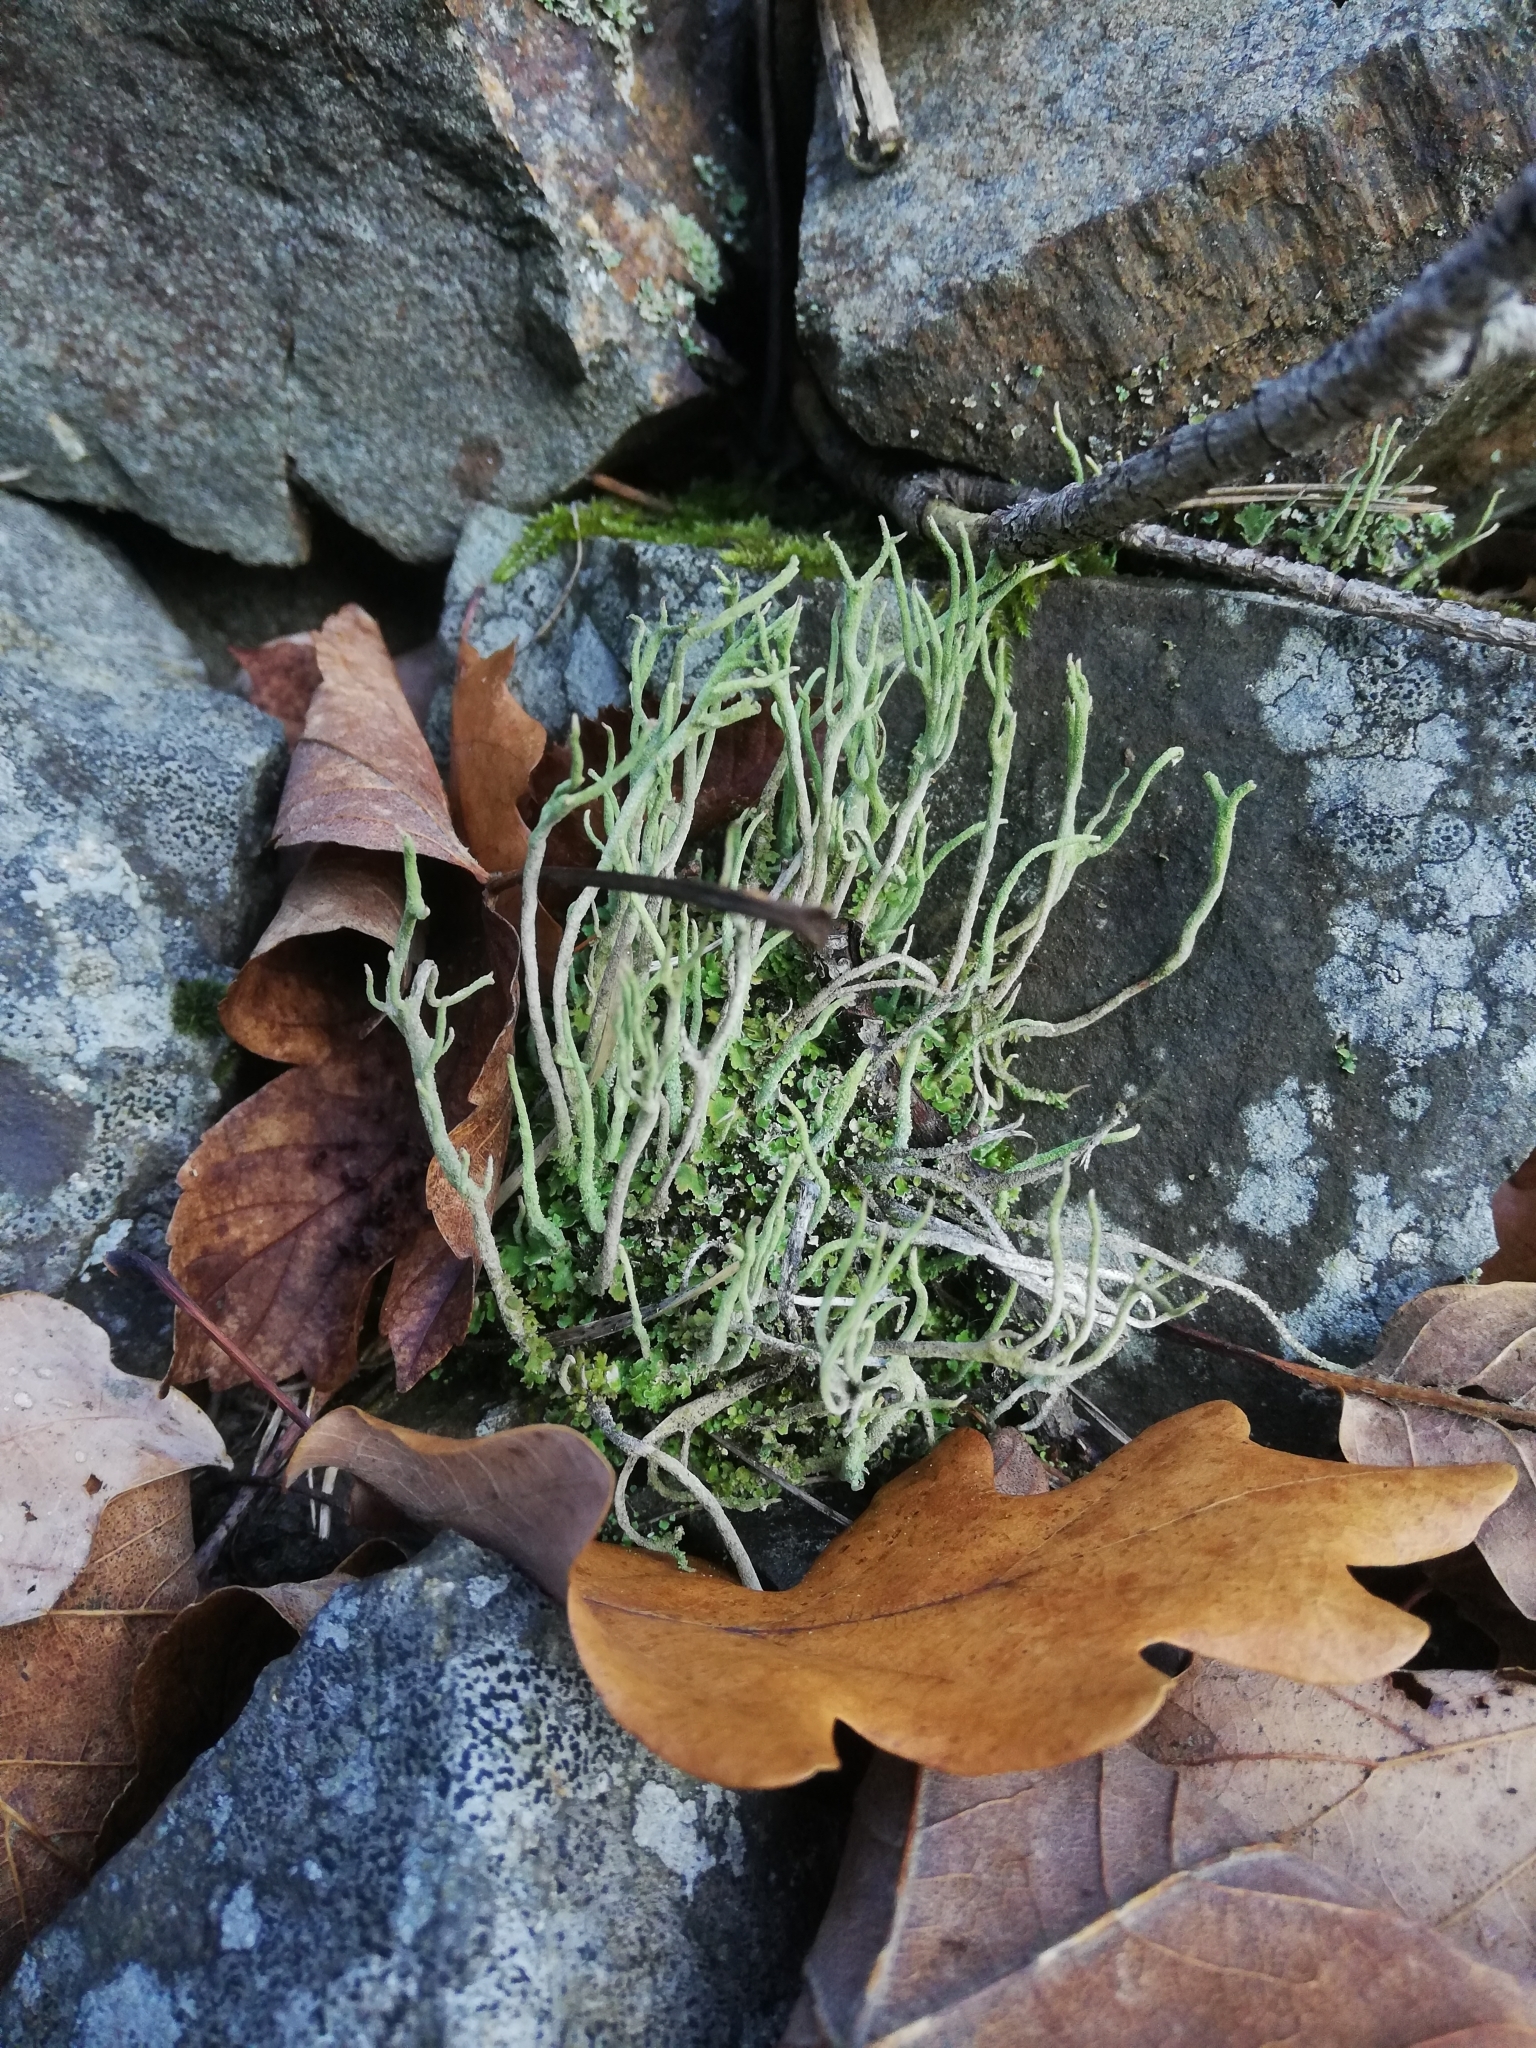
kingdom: Fungi
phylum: Ascomycota
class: Lecanoromycetes
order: Lecanorales
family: Cladoniaceae
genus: Cladonia
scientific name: Cladonia subulata
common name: Antlered powderhorn
